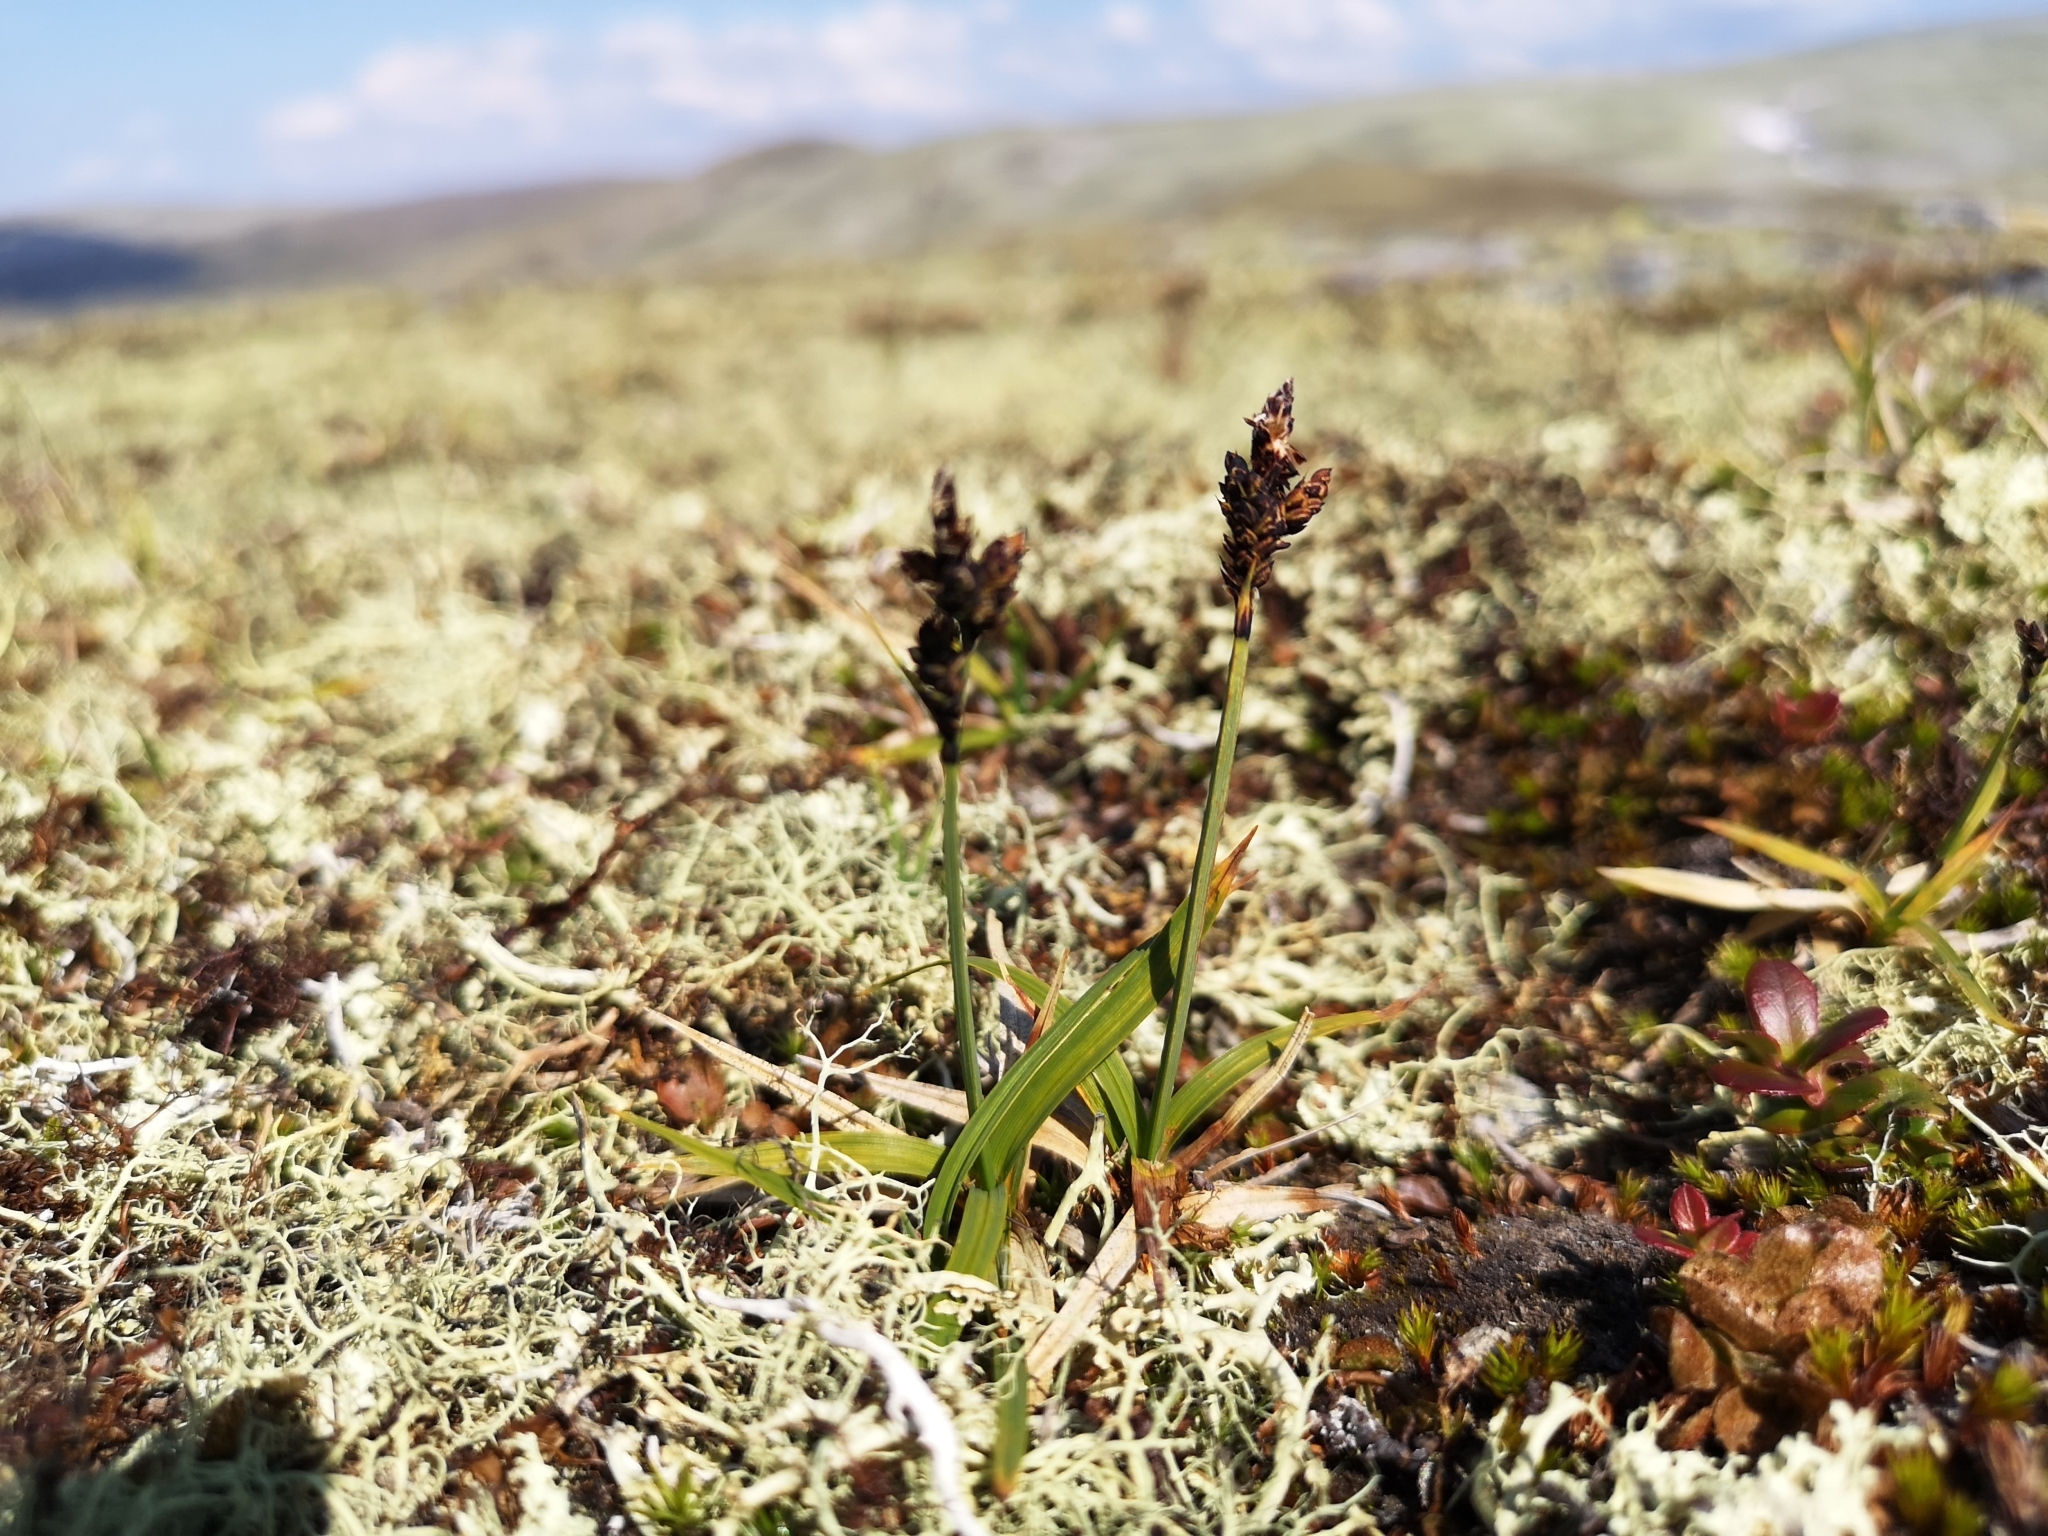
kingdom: Plantae
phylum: Tracheophyta
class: Liliopsida
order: Poales
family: Cyperaceae
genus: Carex
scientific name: Carex bigelowii
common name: Stiff sedge
